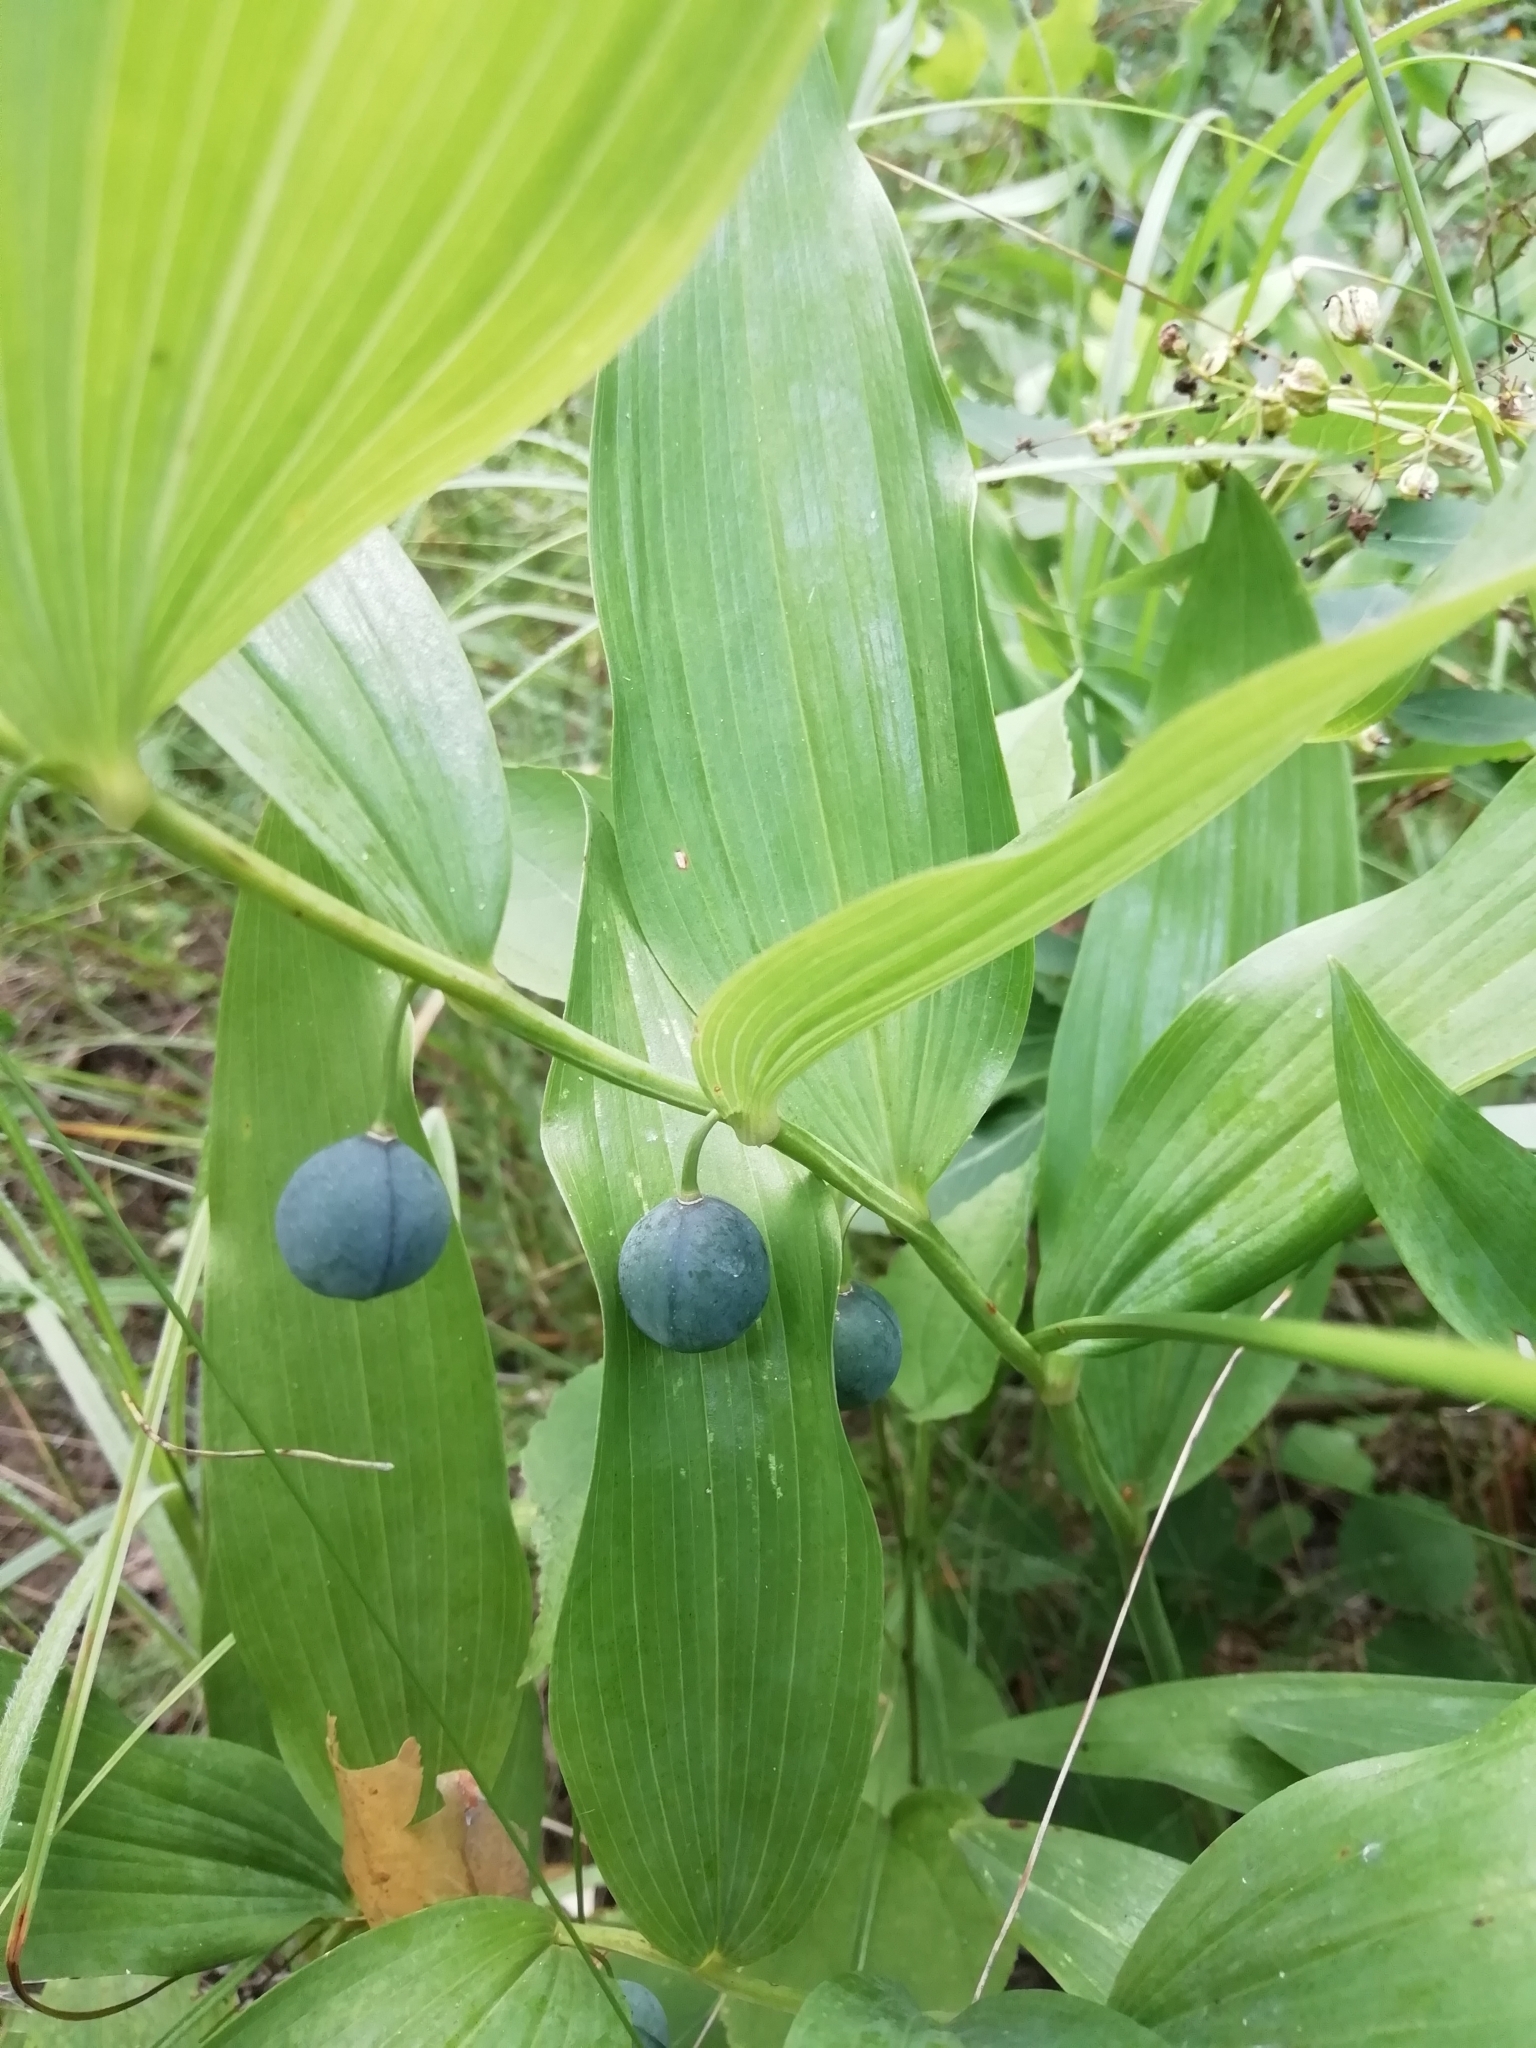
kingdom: Plantae
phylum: Tracheophyta
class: Liliopsida
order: Asparagales
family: Asparagaceae
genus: Polygonatum
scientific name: Polygonatum odoratum
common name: Angular solomon's-seal
